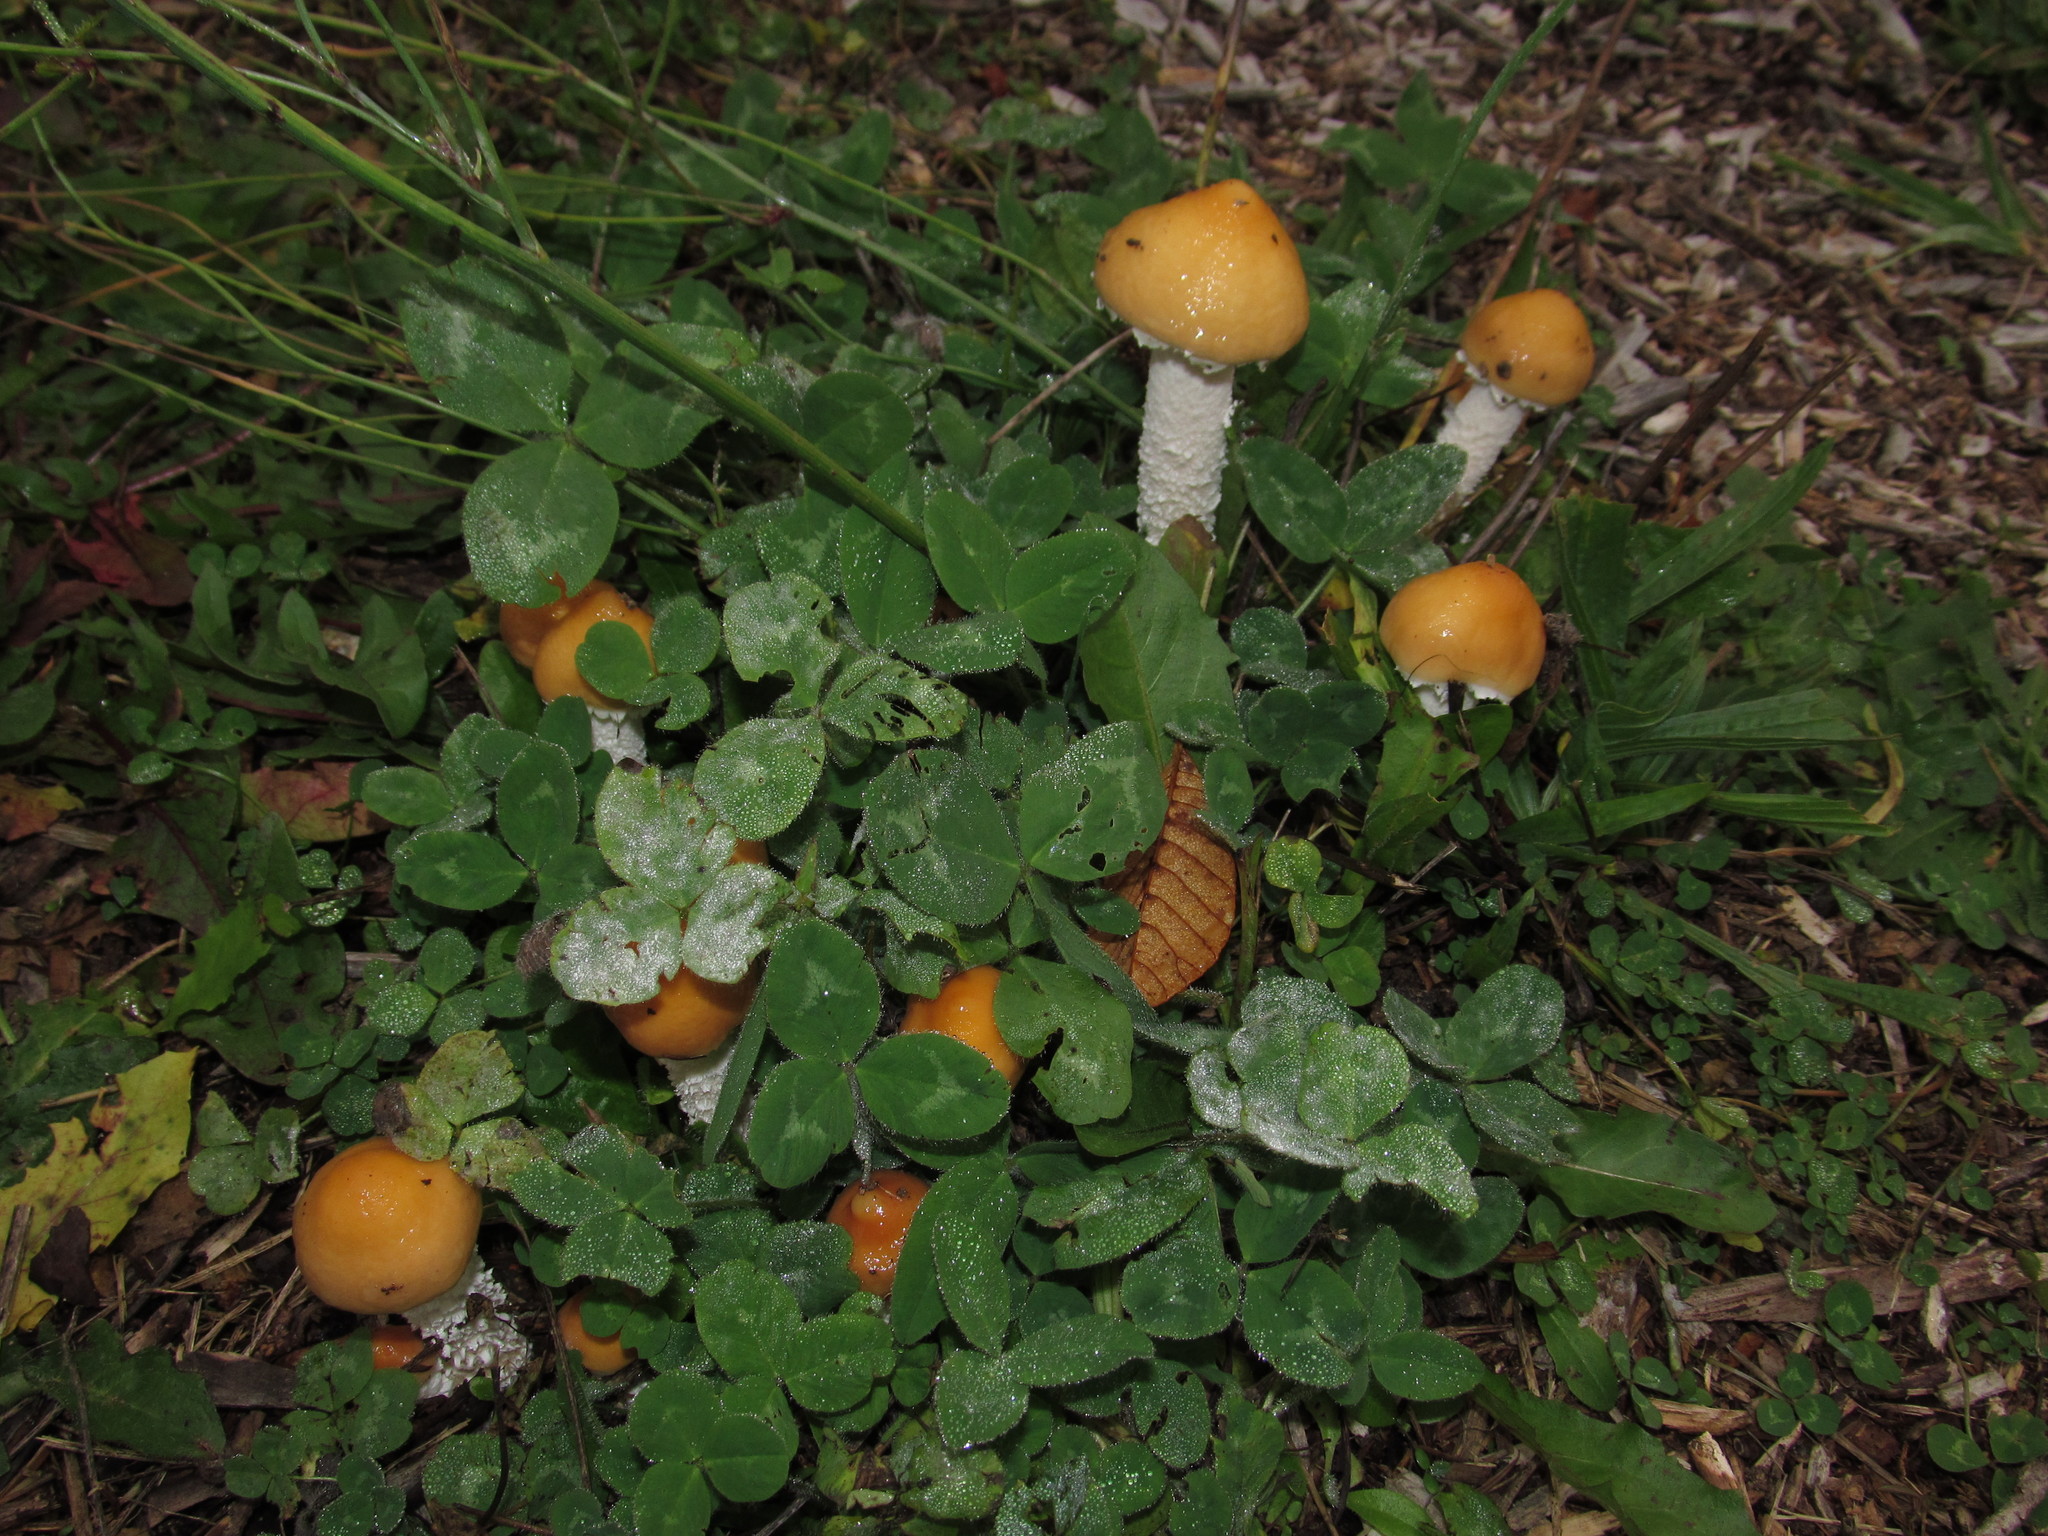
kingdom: Fungi
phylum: Basidiomycota
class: Agaricomycetes
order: Agaricales
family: Strophariaceae
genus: Stropharia
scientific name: Stropharia ambigua
